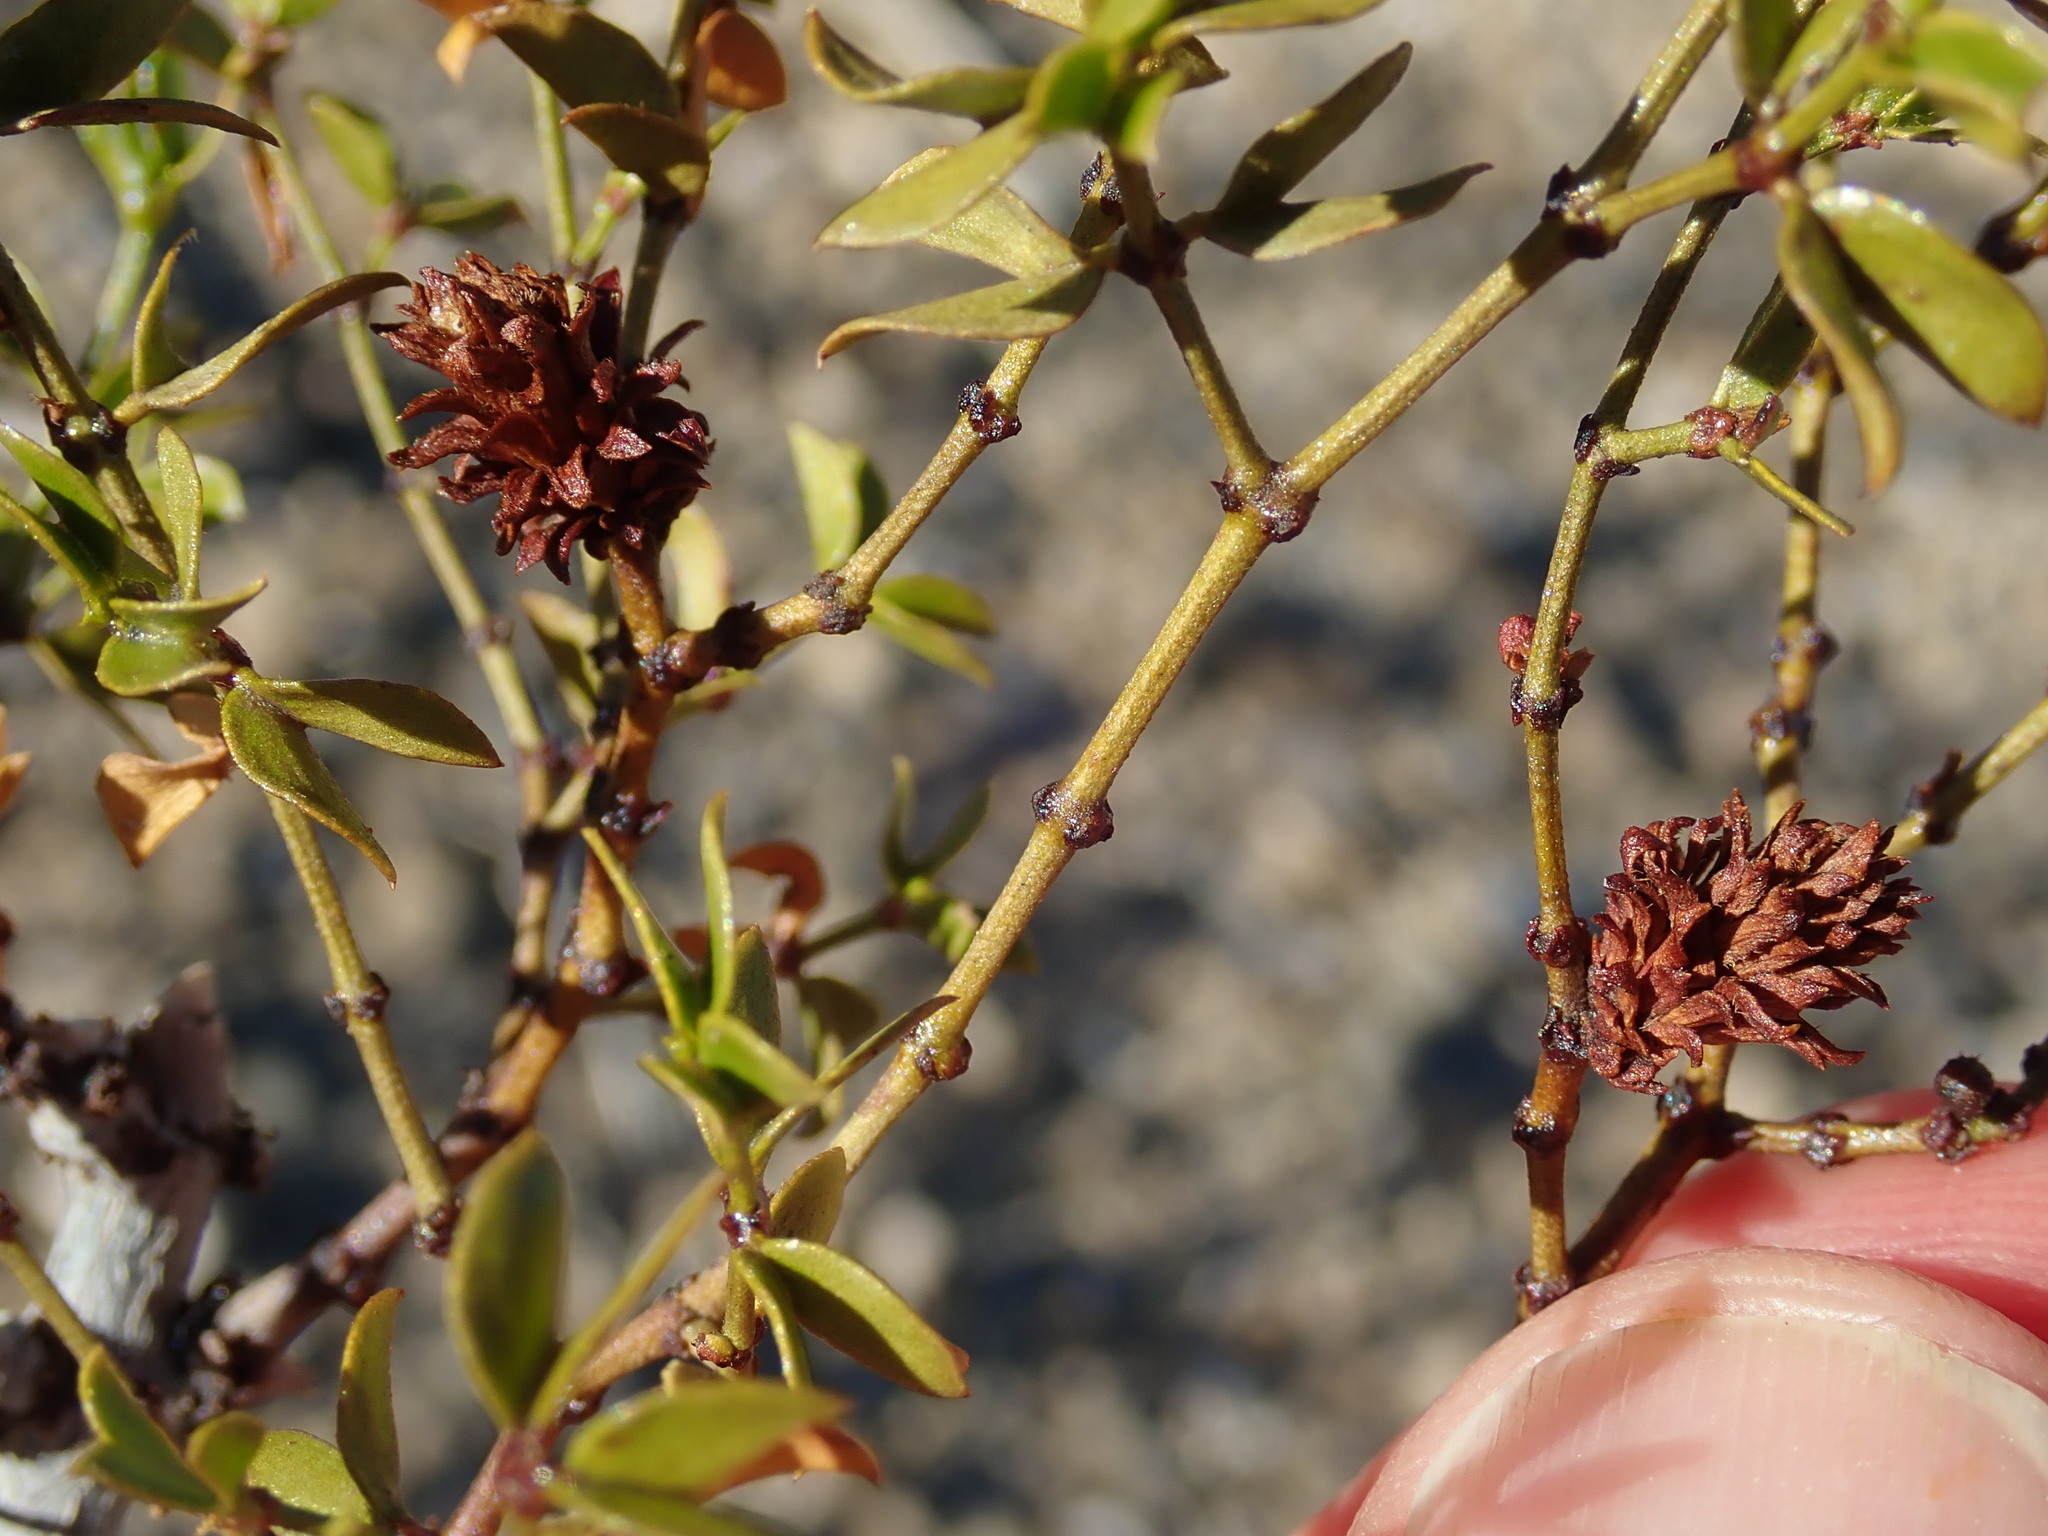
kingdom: Animalia
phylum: Arthropoda
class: Insecta
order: Diptera
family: Cecidomyiidae
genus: Asphondylia
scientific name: Asphondylia rosetta
